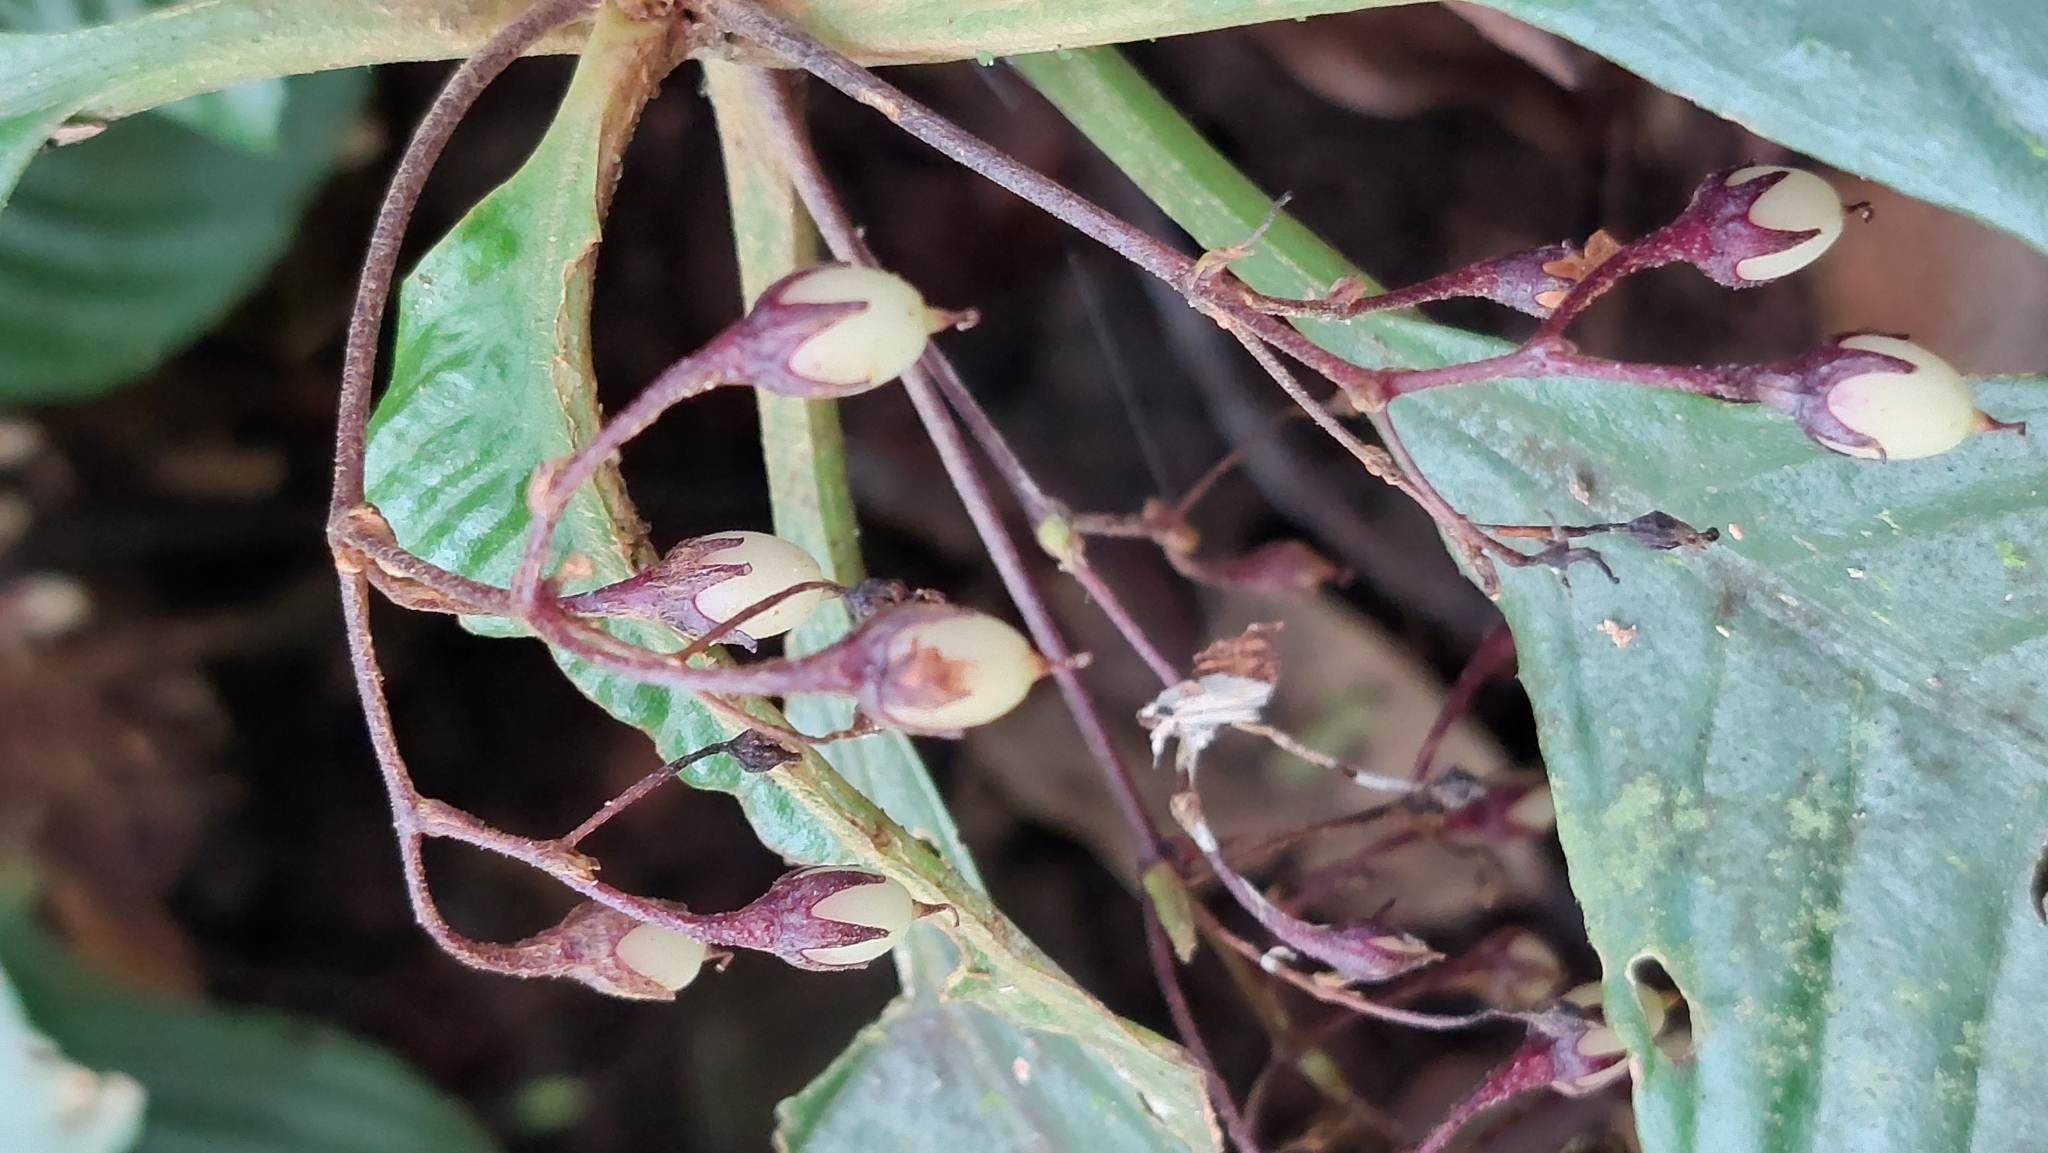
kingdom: Plantae
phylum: Tracheophyta
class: Magnoliopsida
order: Lamiales
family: Gesneriaceae
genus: Rhynchotechum
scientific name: Rhynchotechum formosanum
